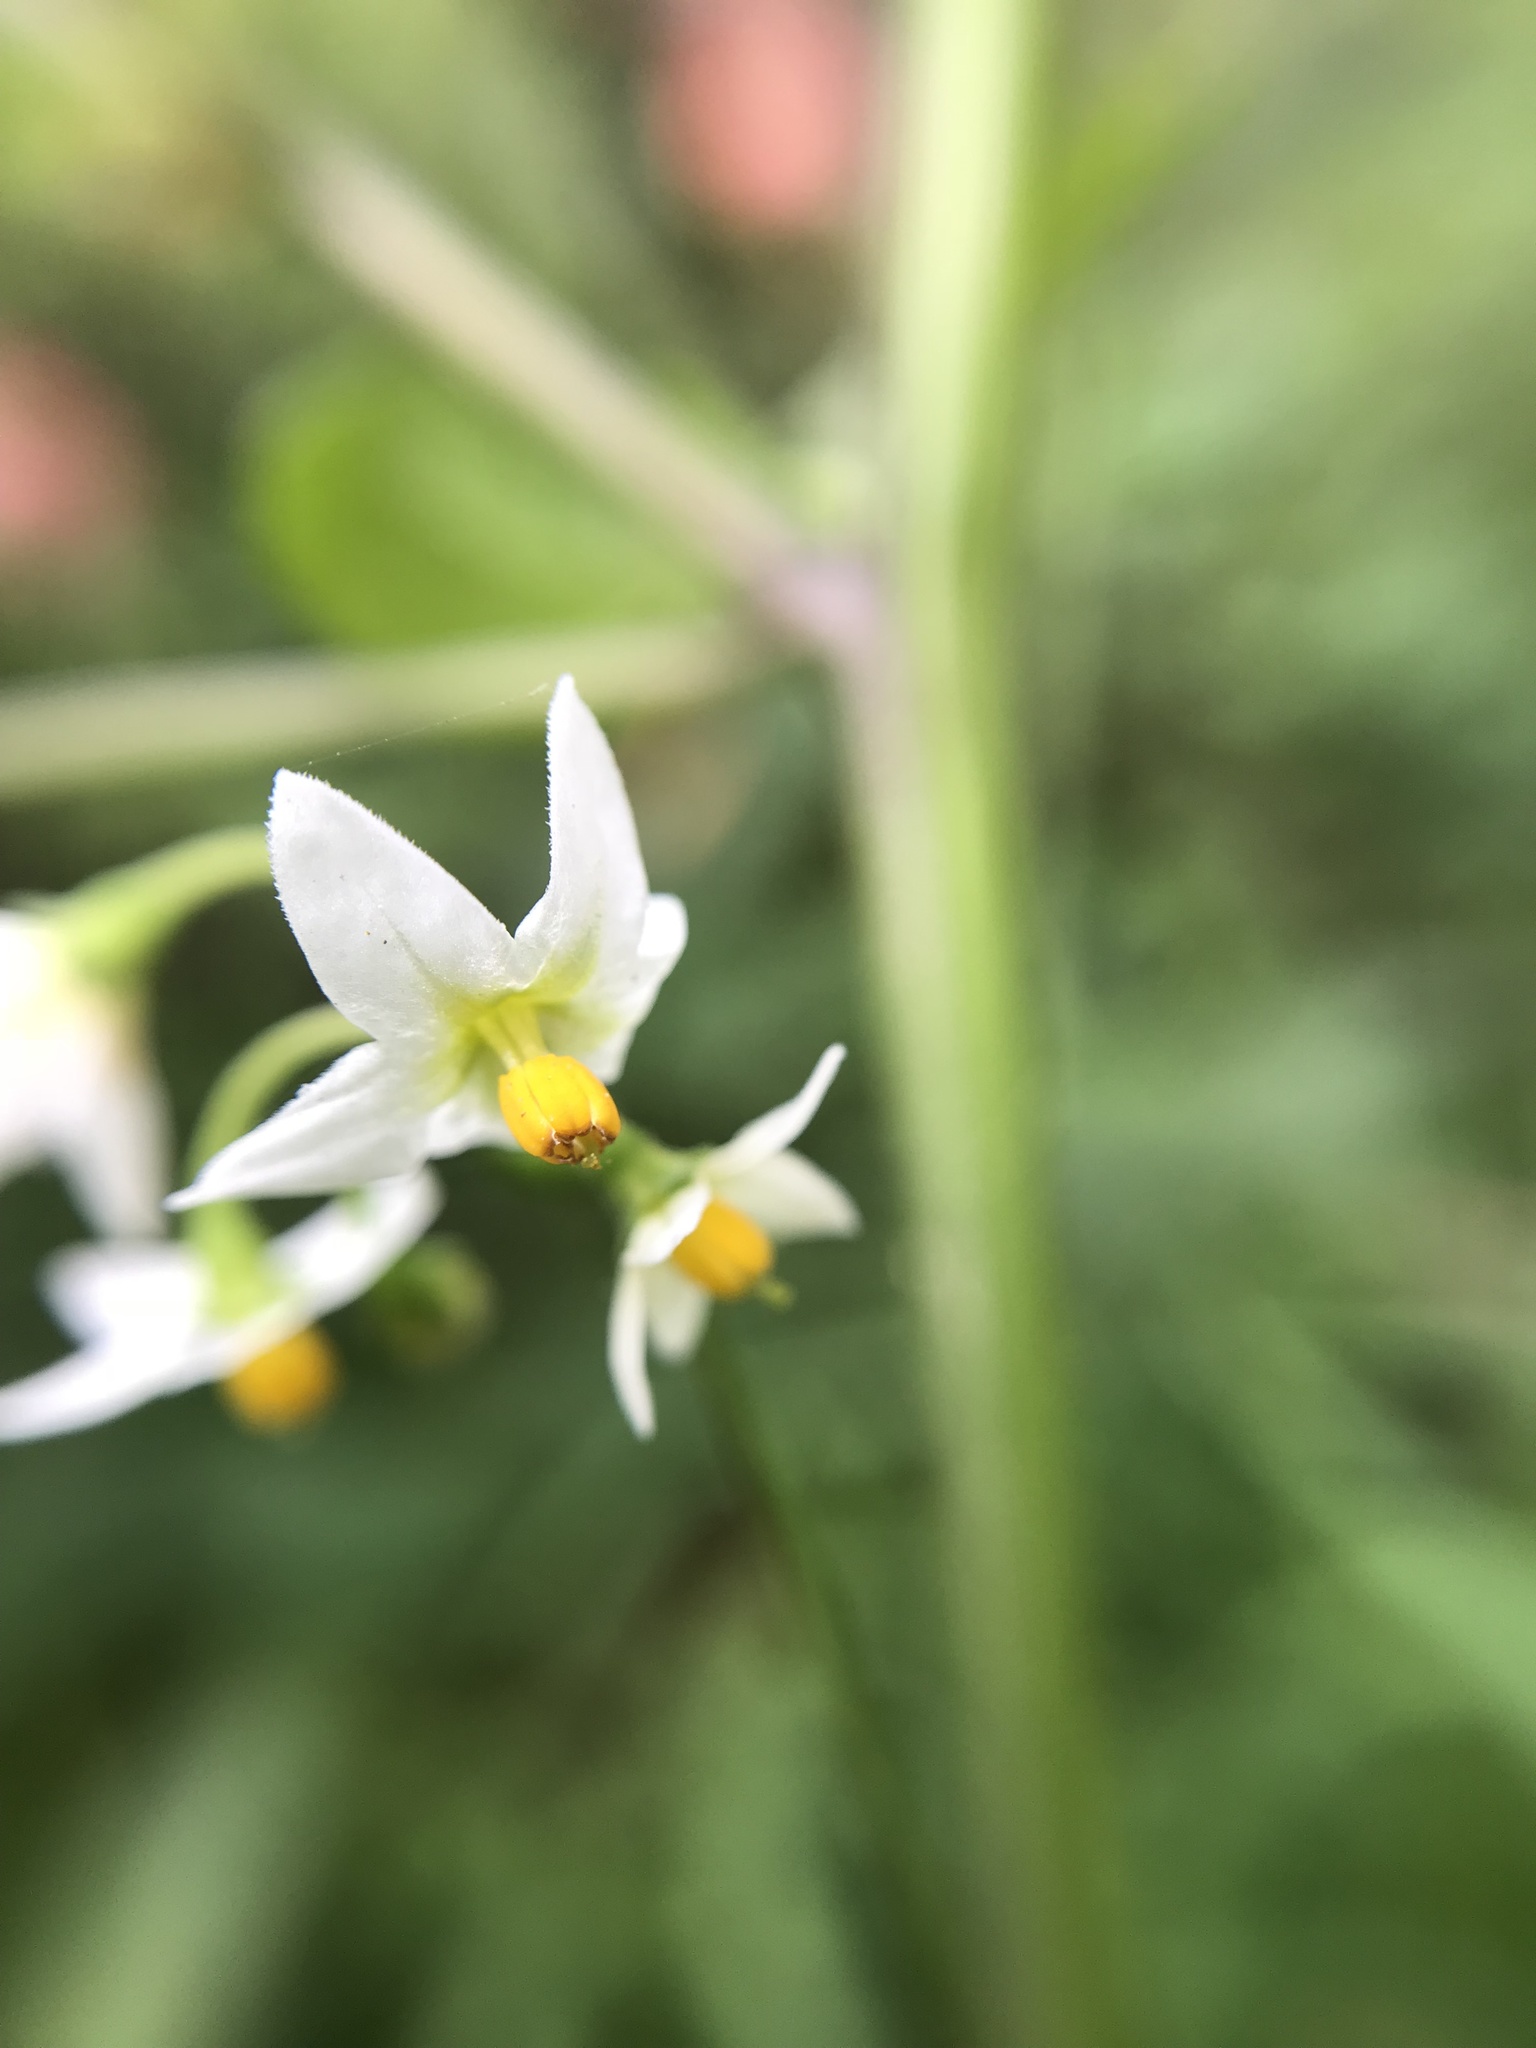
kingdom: Plantae
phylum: Tracheophyta
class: Magnoliopsida
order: Solanales
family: Solanaceae
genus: Solanum
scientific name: Solanum nigrum
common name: Black nightshade
